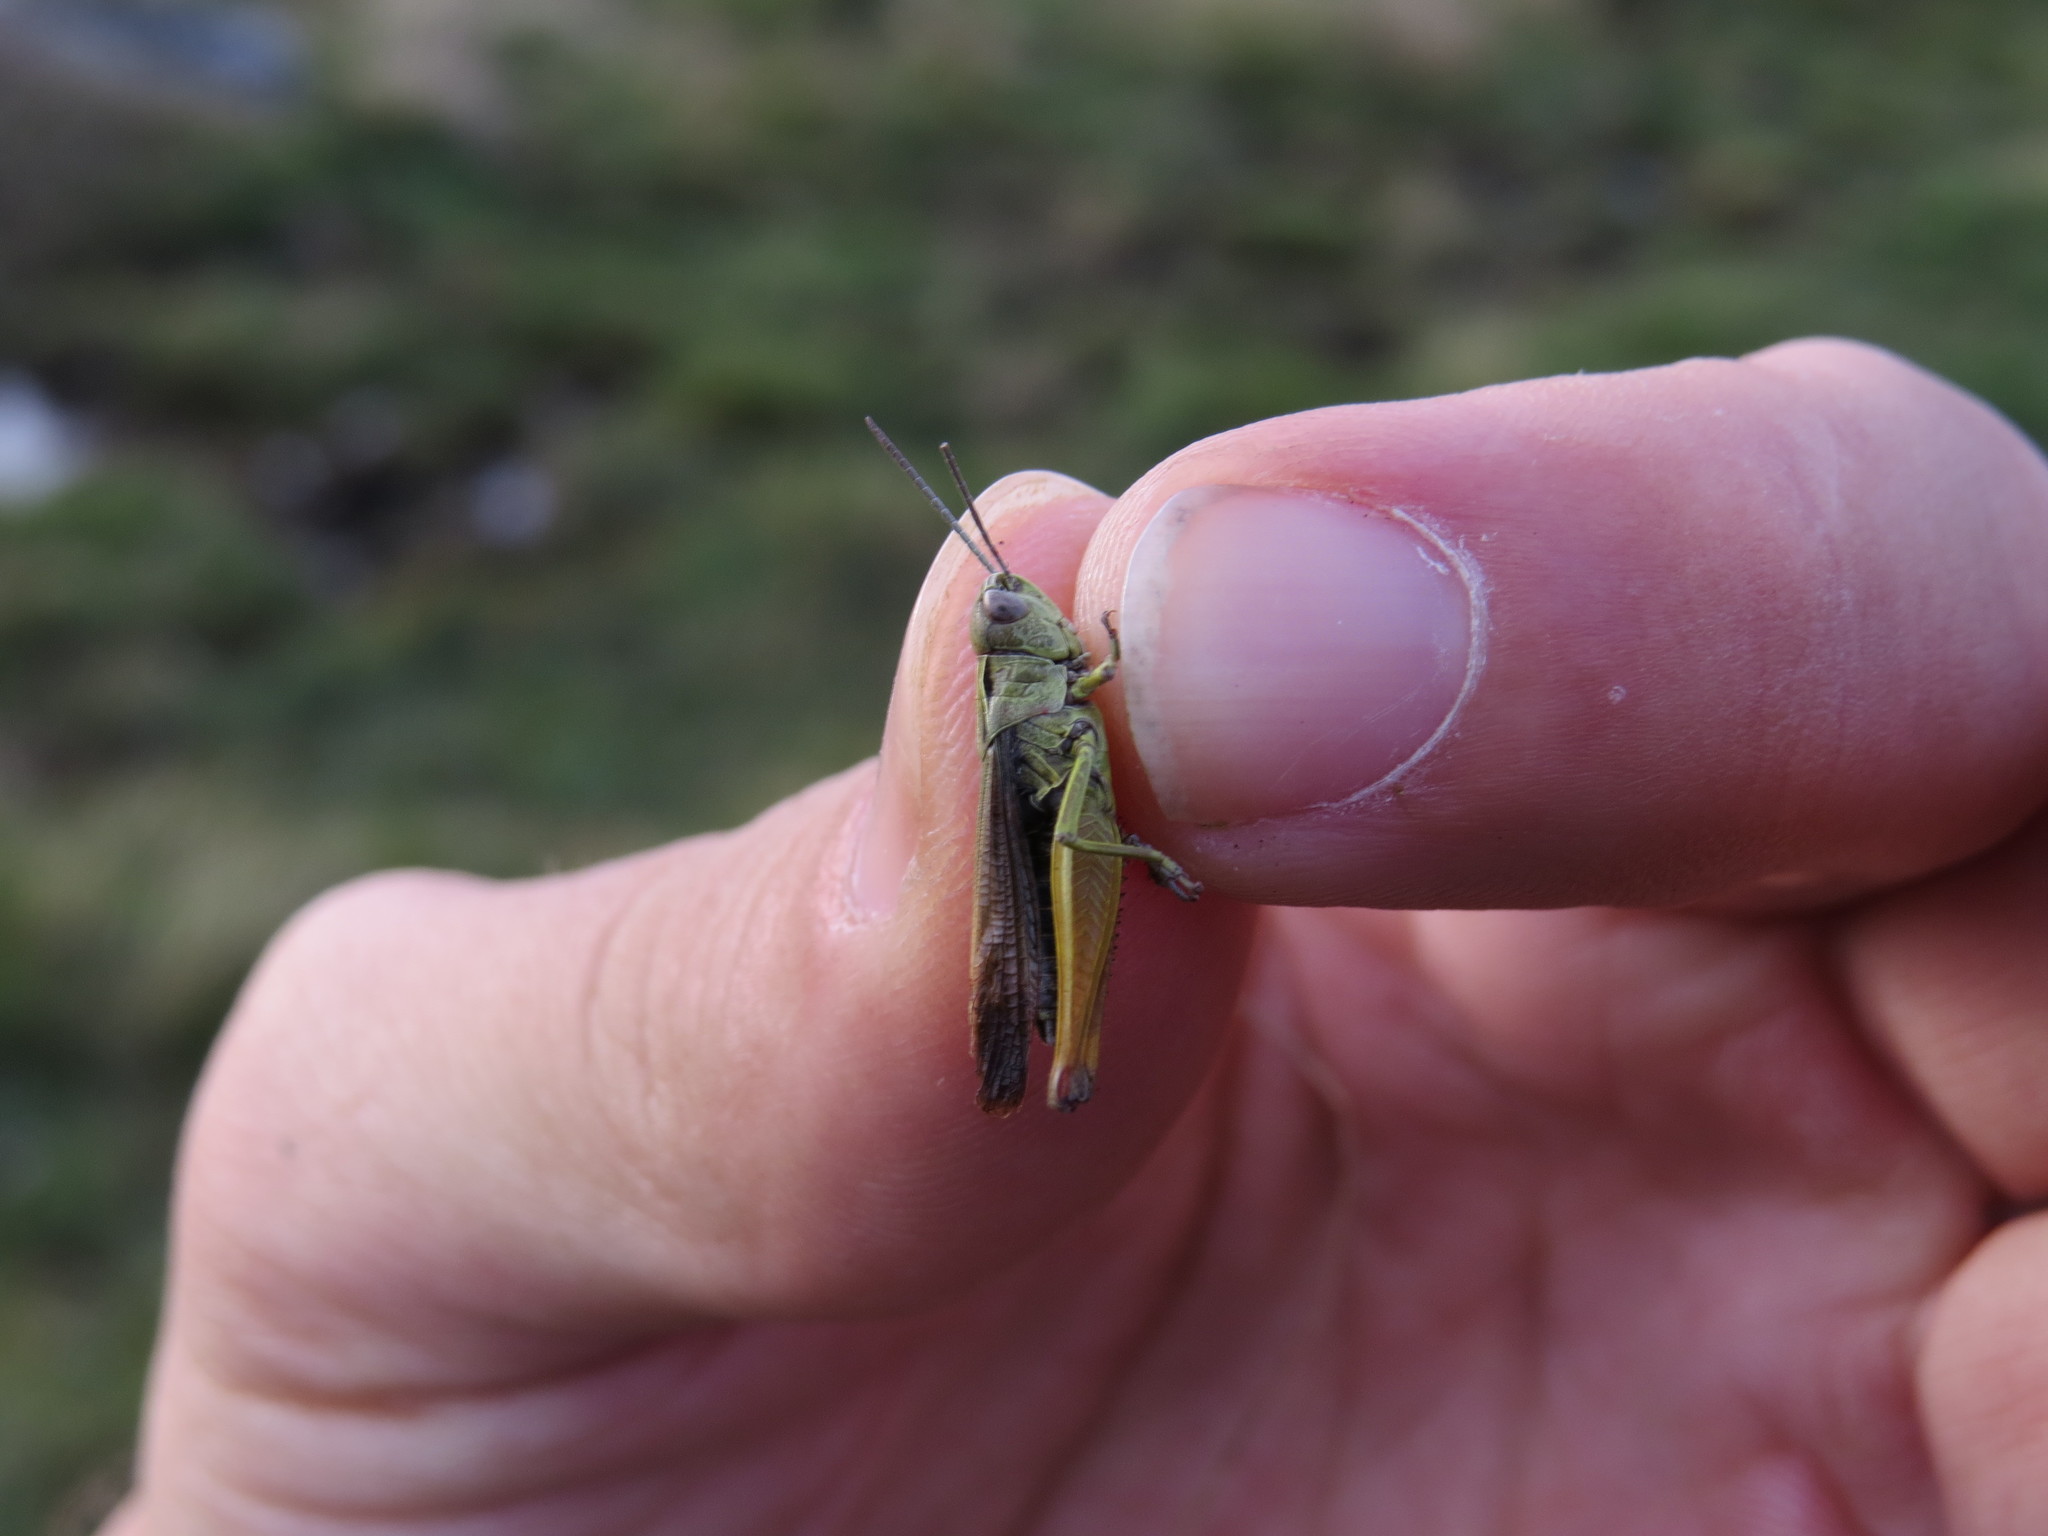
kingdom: Animalia
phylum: Arthropoda
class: Insecta
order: Orthoptera
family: Acrididae
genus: Omocestus
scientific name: Omocestus viridulus
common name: Common green grasshopper
